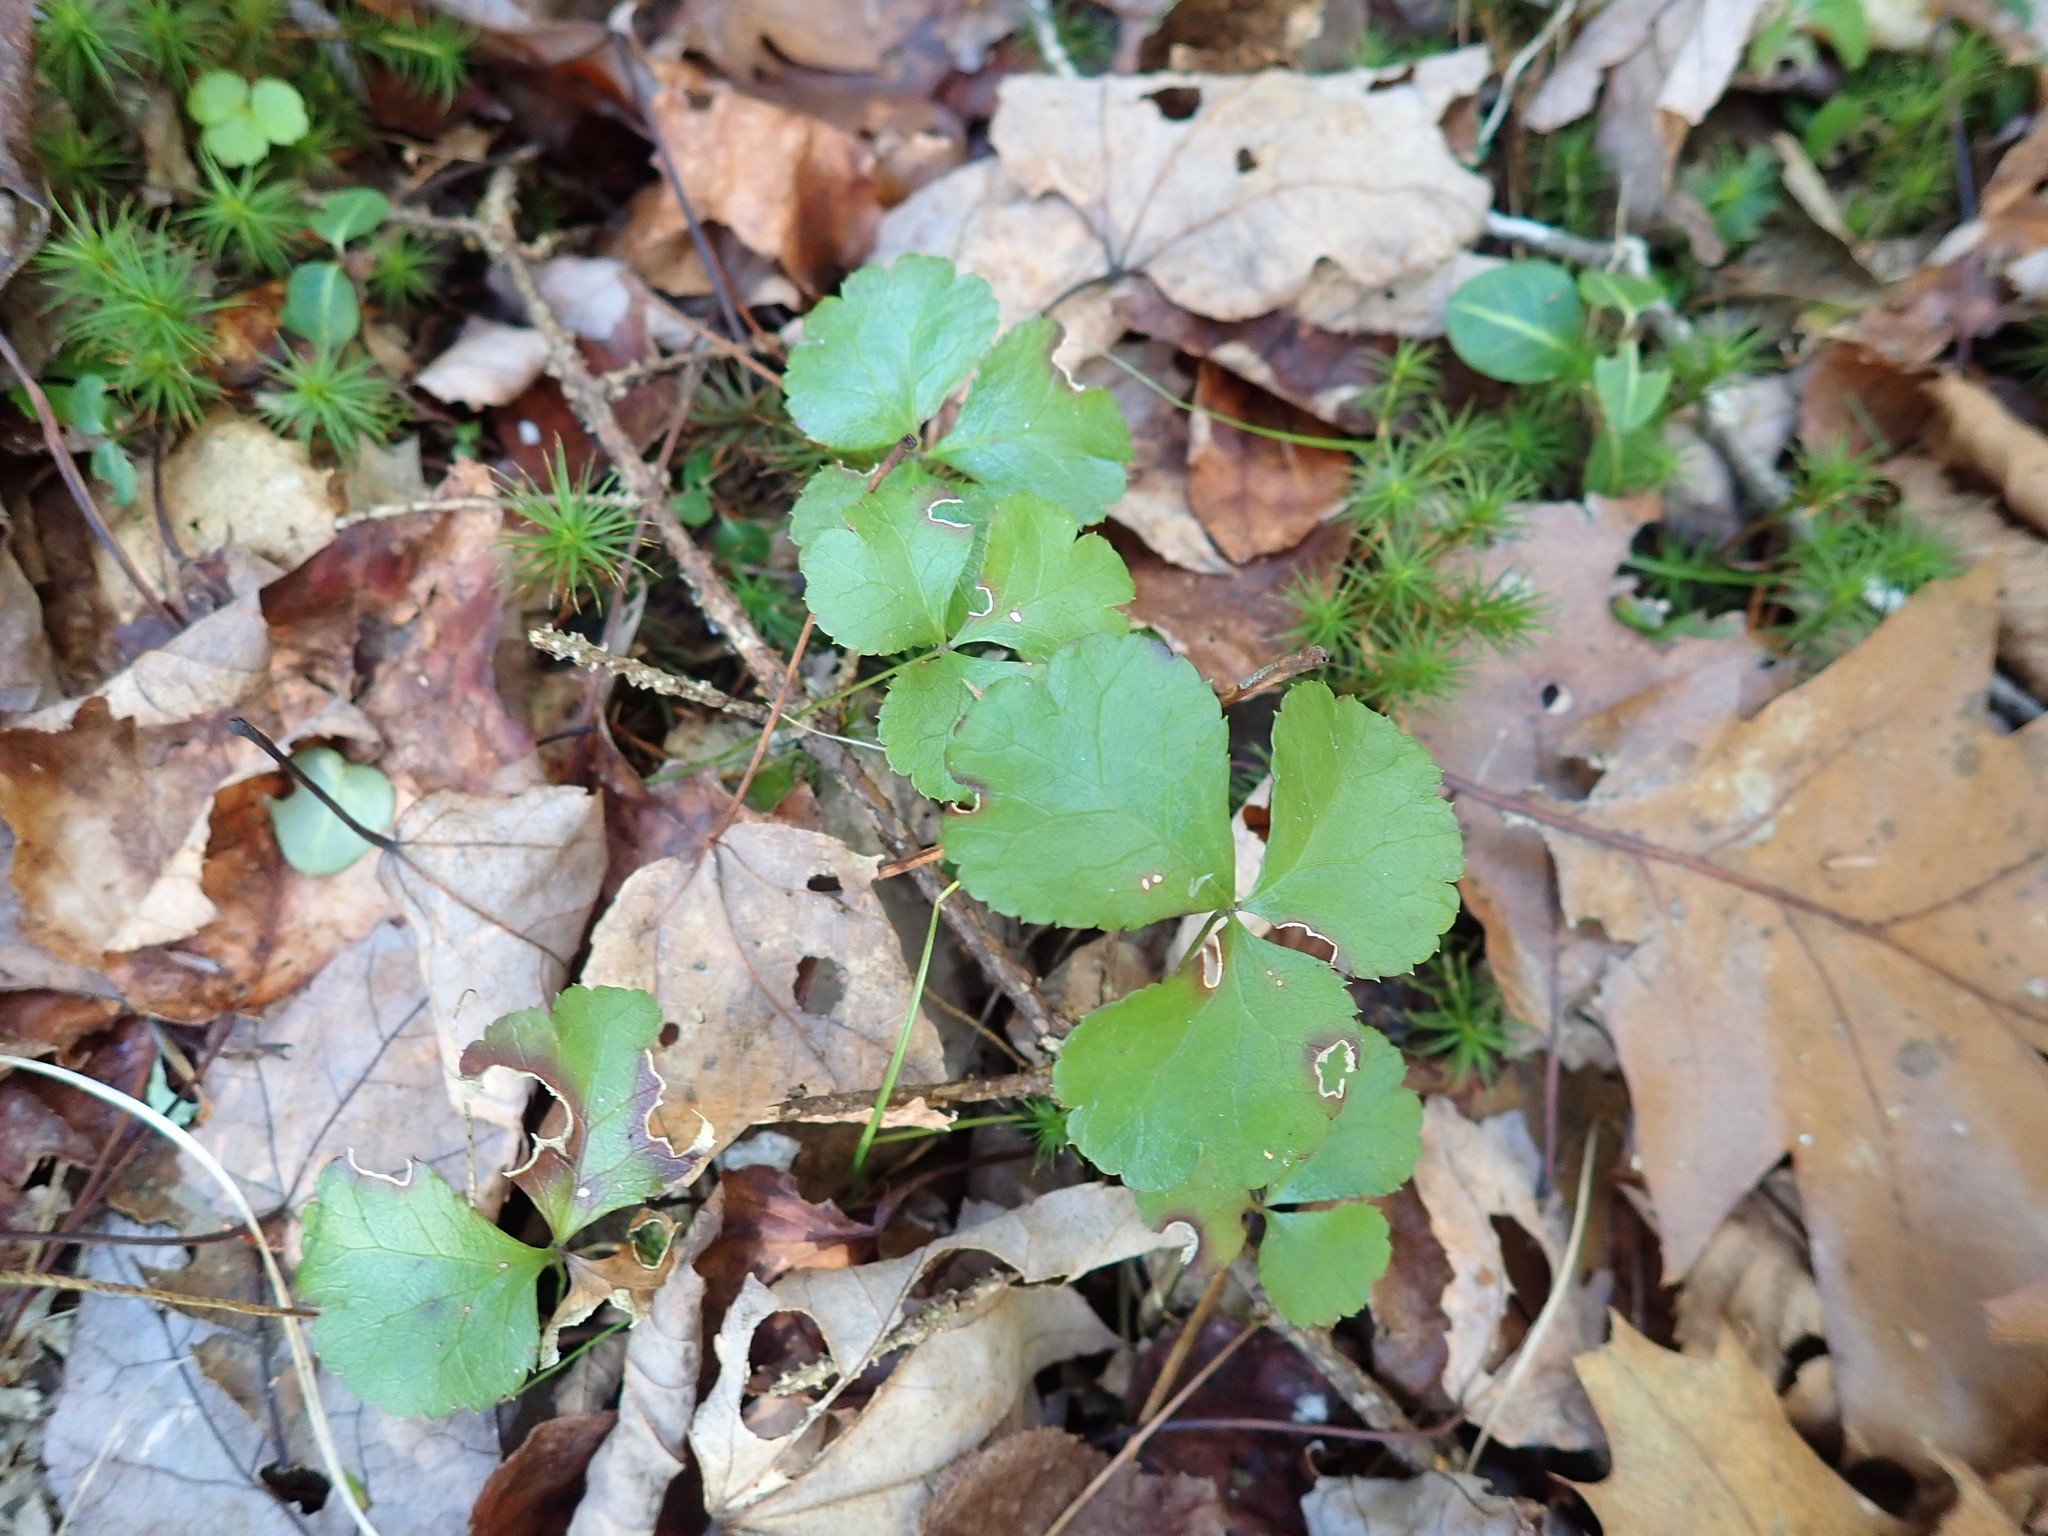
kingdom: Plantae
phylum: Tracheophyta
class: Magnoliopsida
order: Ranunculales
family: Ranunculaceae
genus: Coptis
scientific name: Coptis trifolia
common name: Canker-root
